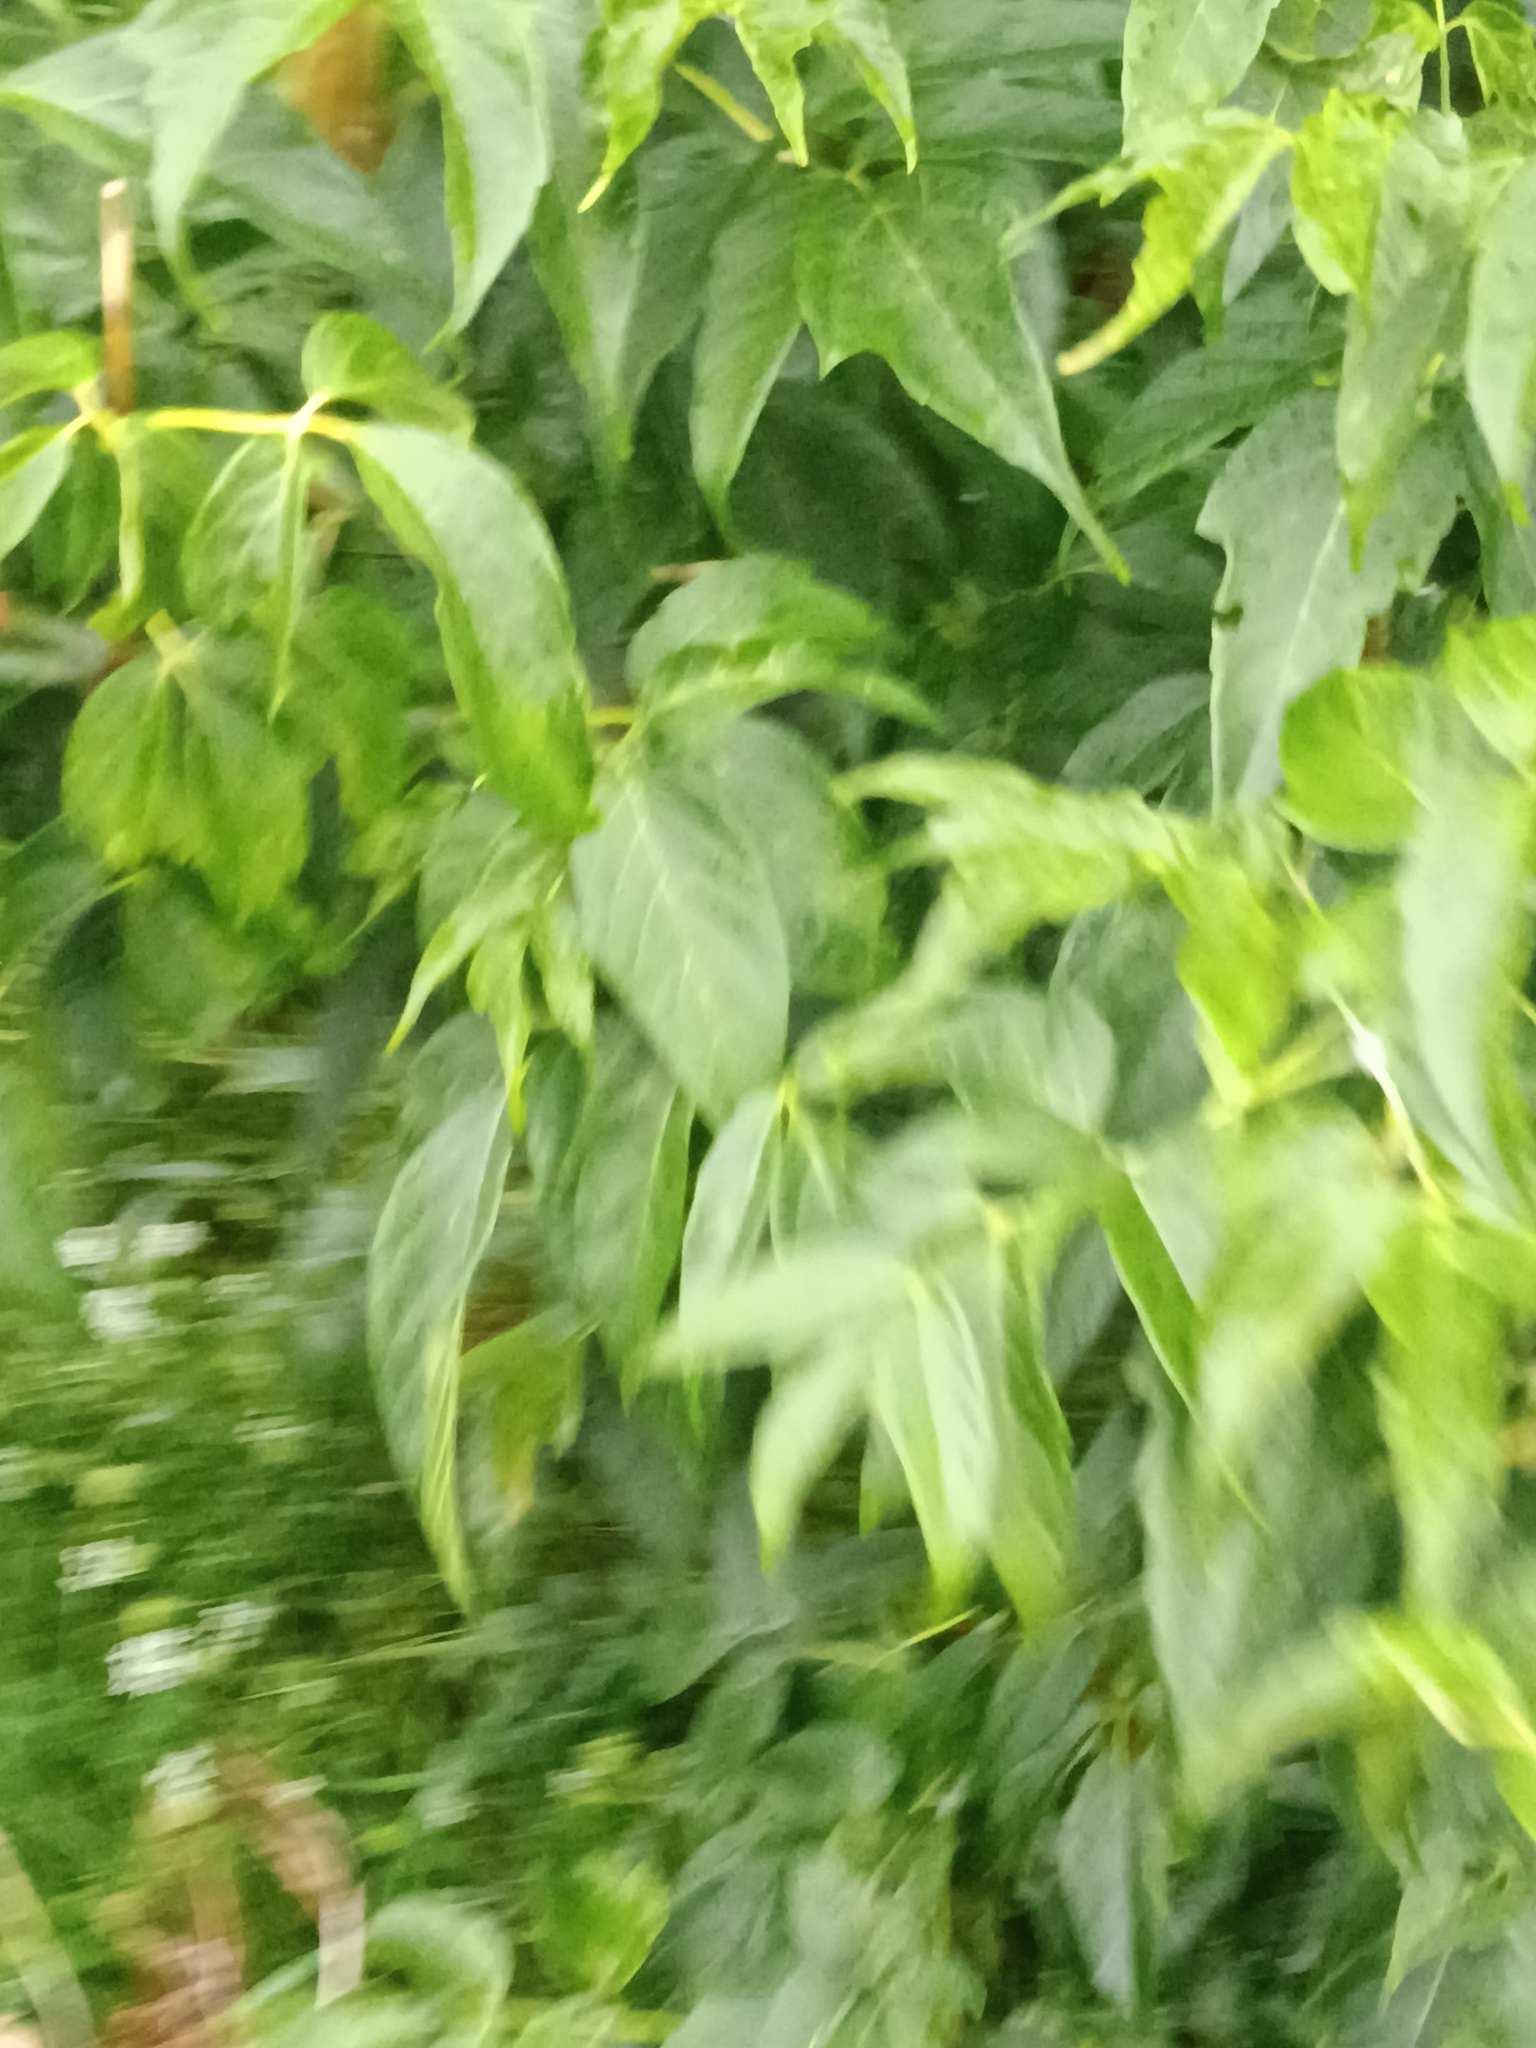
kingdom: Plantae
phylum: Tracheophyta
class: Magnoliopsida
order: Sapindales
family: Sapindaceae
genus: Acer
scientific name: Acer negundo
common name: Ashleaf maple
